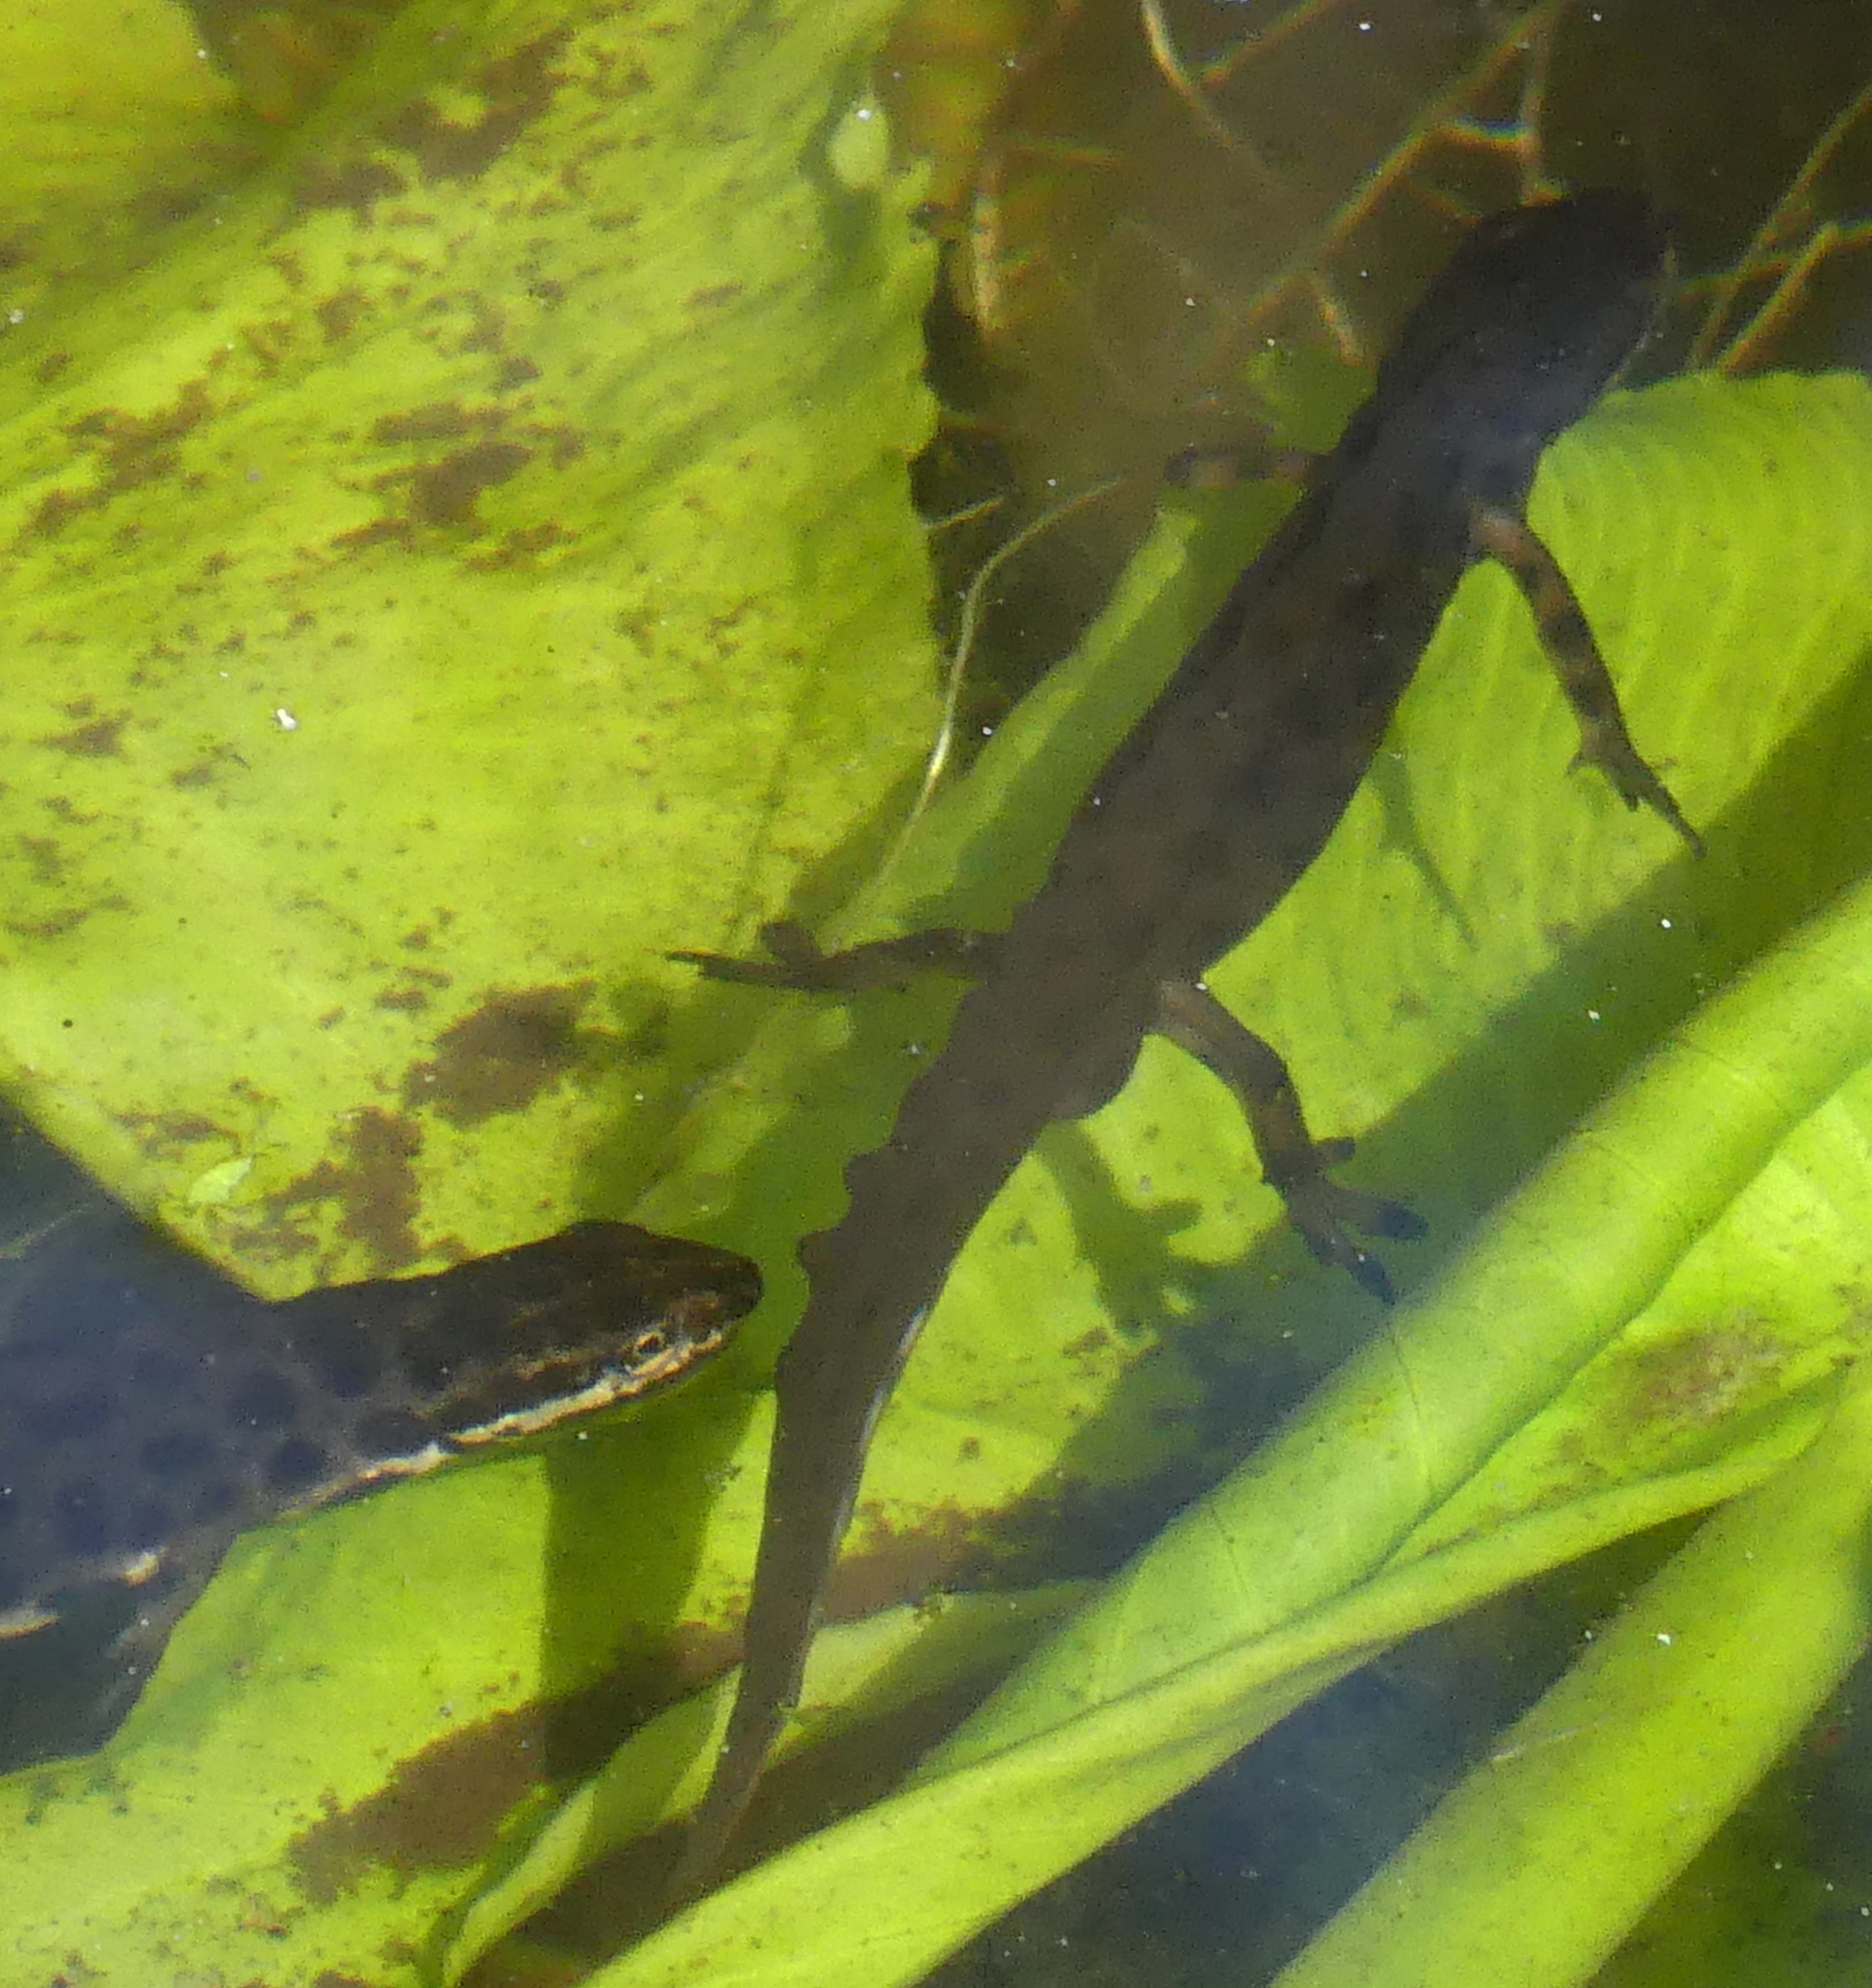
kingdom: Animalia
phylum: Chordata
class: Amphibia
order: Caudata
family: Salamandridae
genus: Lissotriton
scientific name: Lissotriton vulgaris
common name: Smooth newt
